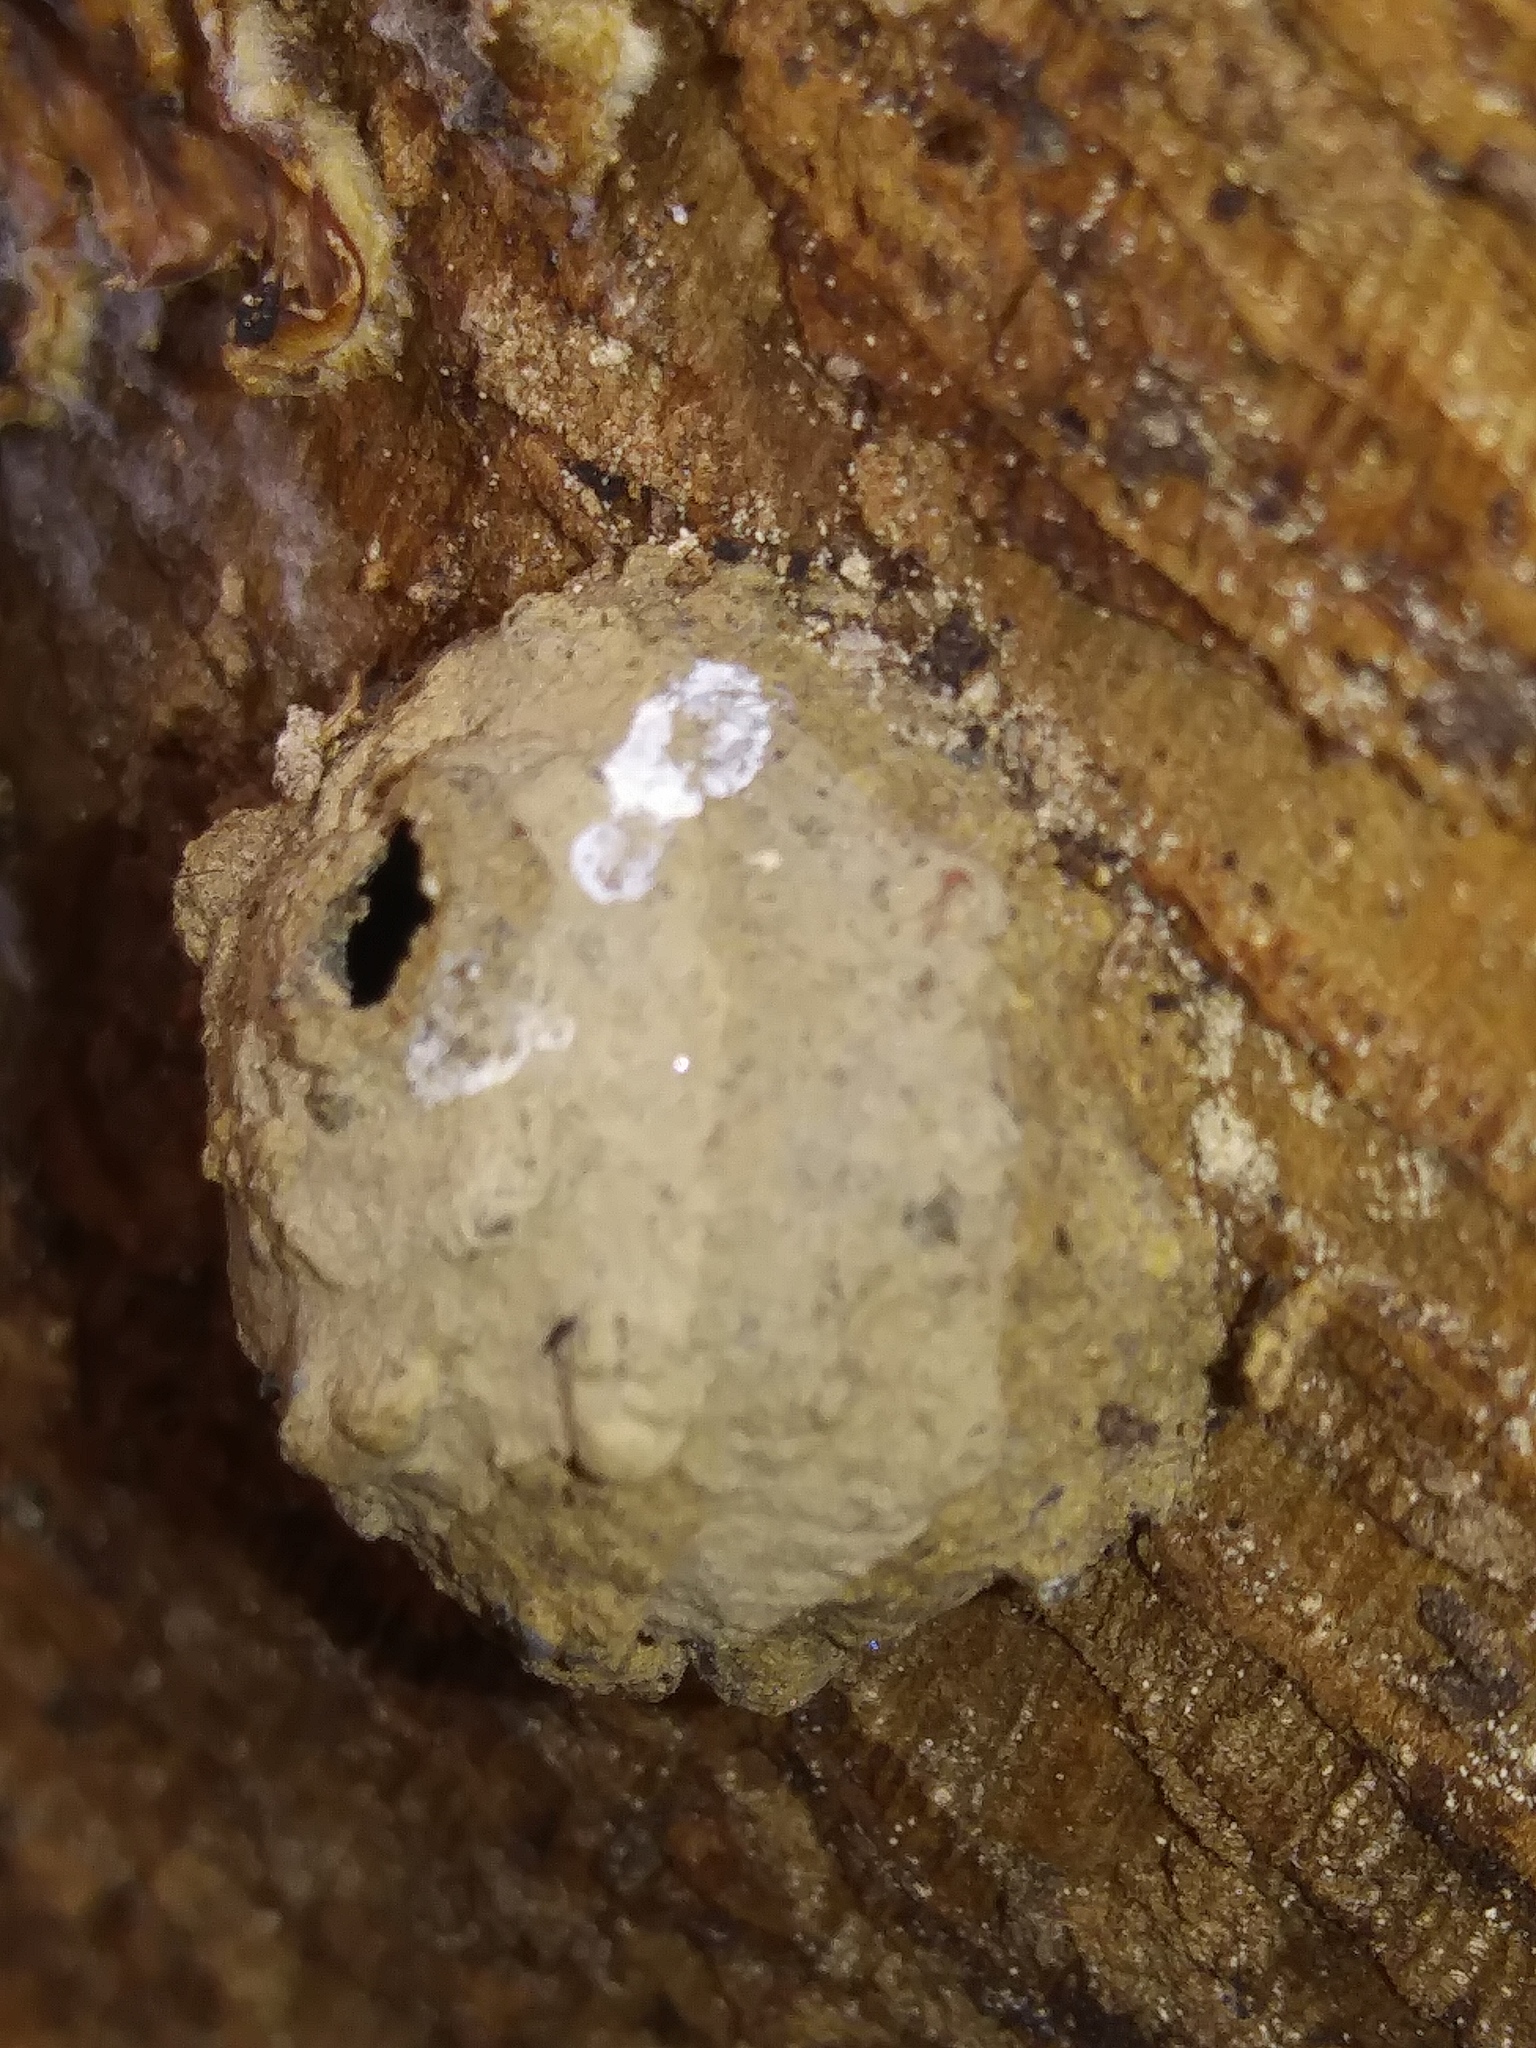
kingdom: Animalia
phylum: Arthropoda
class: Insecta
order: Hymenoptera
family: Vespidae
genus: Eumenes
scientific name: Eumenes
